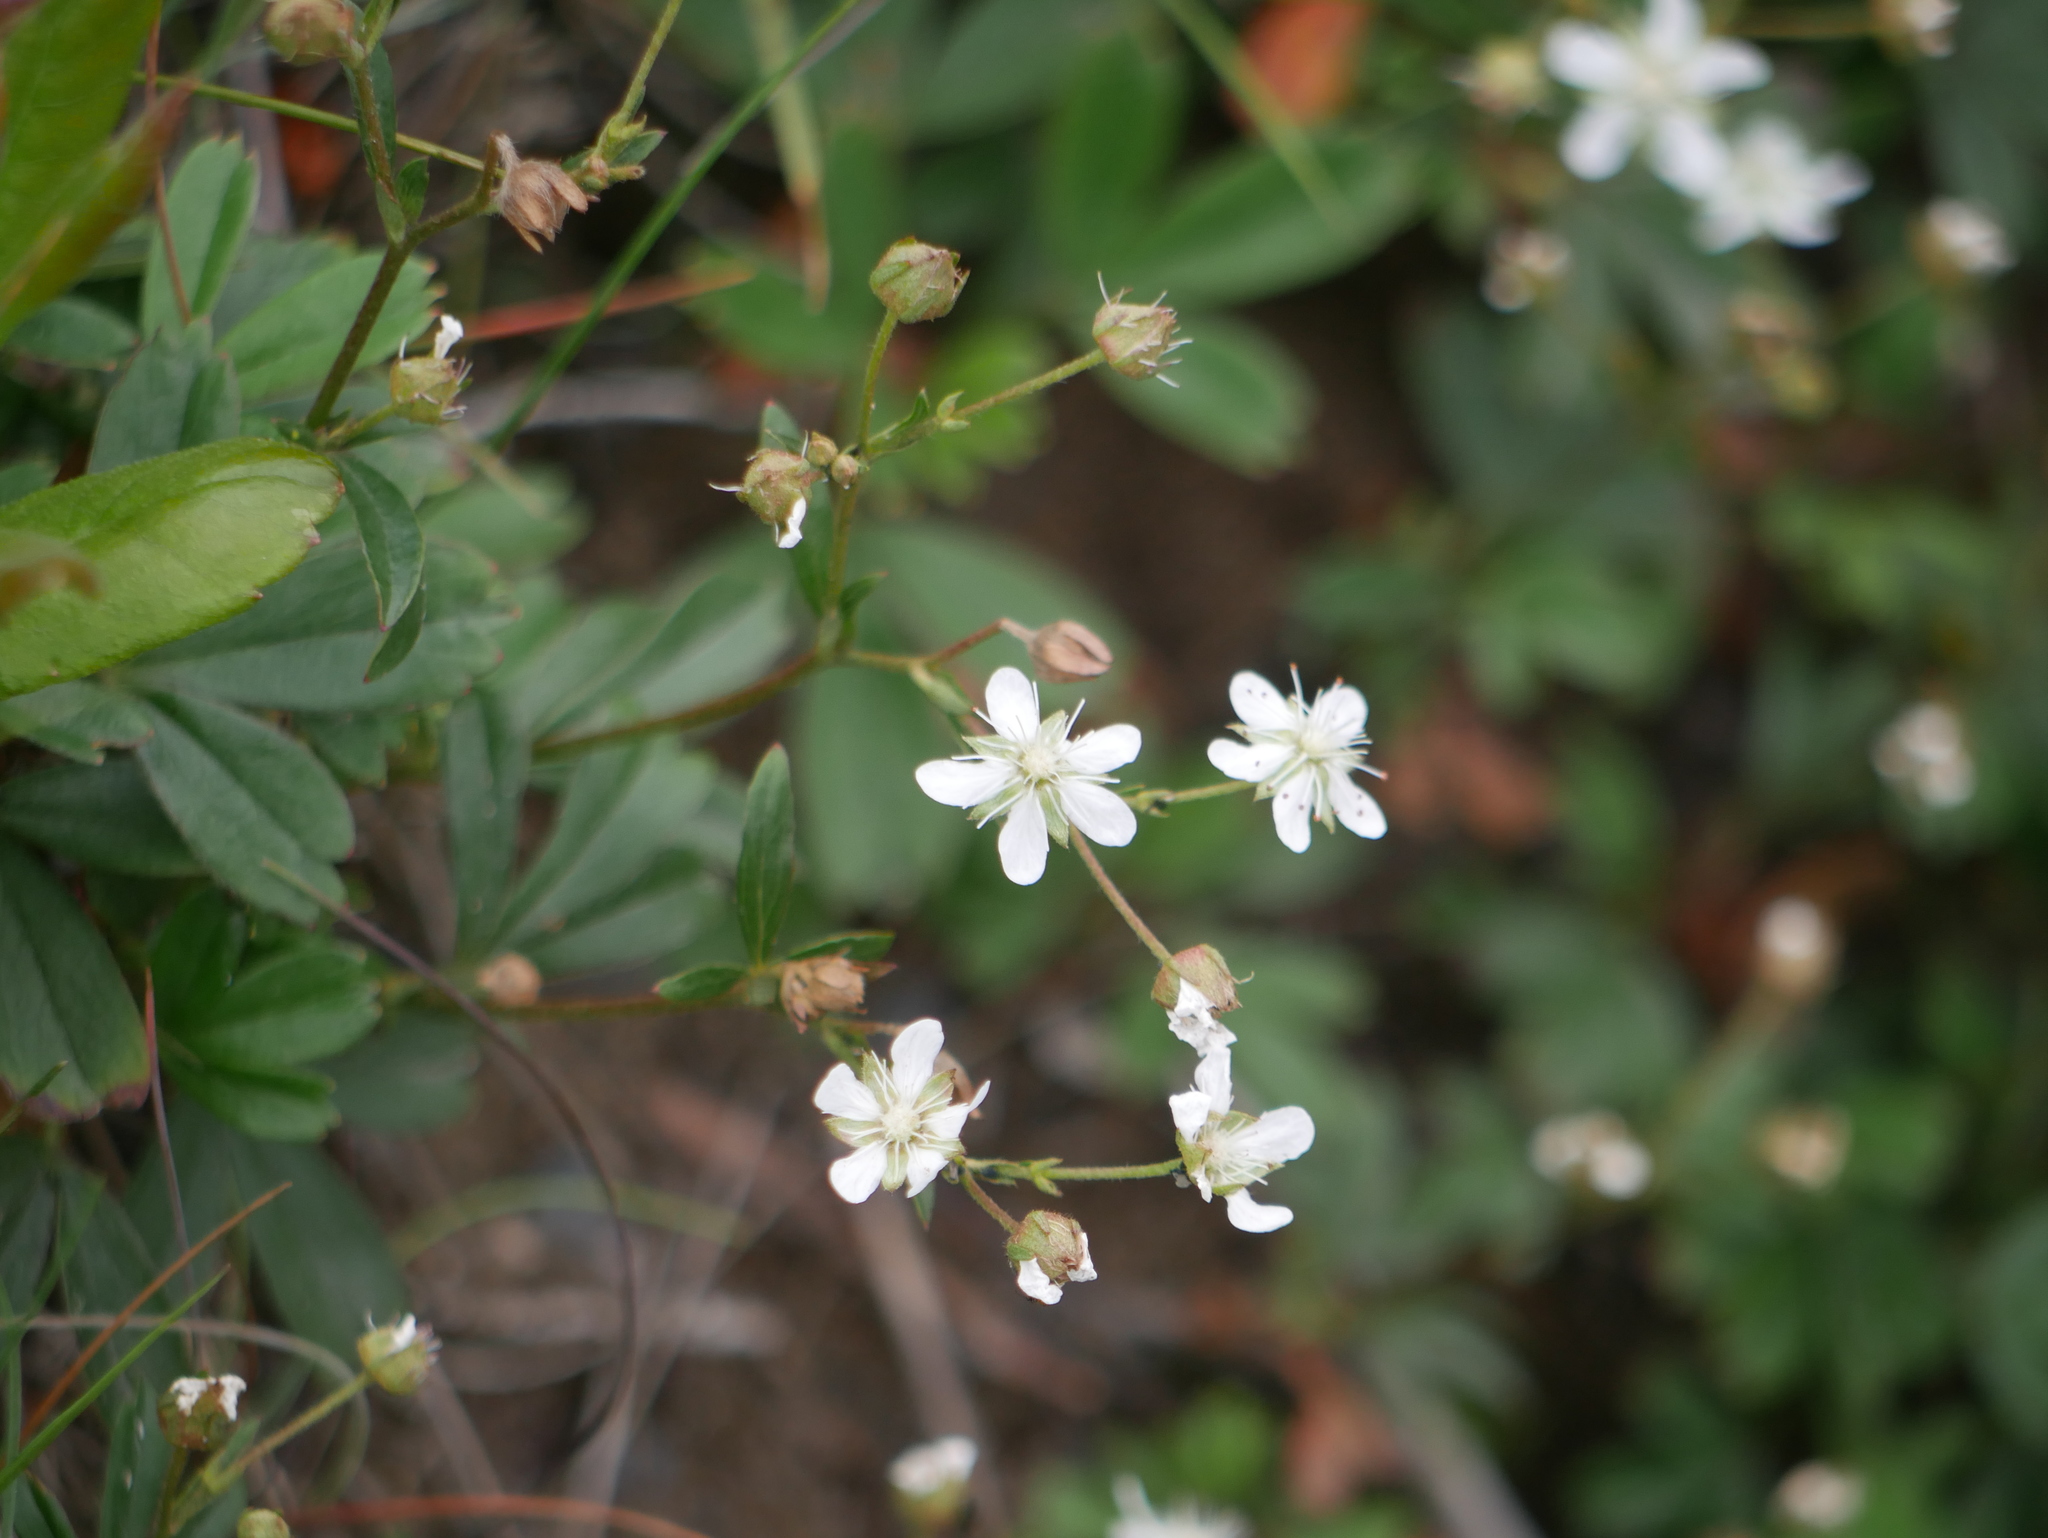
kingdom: Plantae
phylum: Tracheophyta
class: Magnoliopsida
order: Rosales
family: Rosaceae
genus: Sibbaldia
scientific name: Sibbaldia tridentata
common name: Three-toothed cinquefoil
